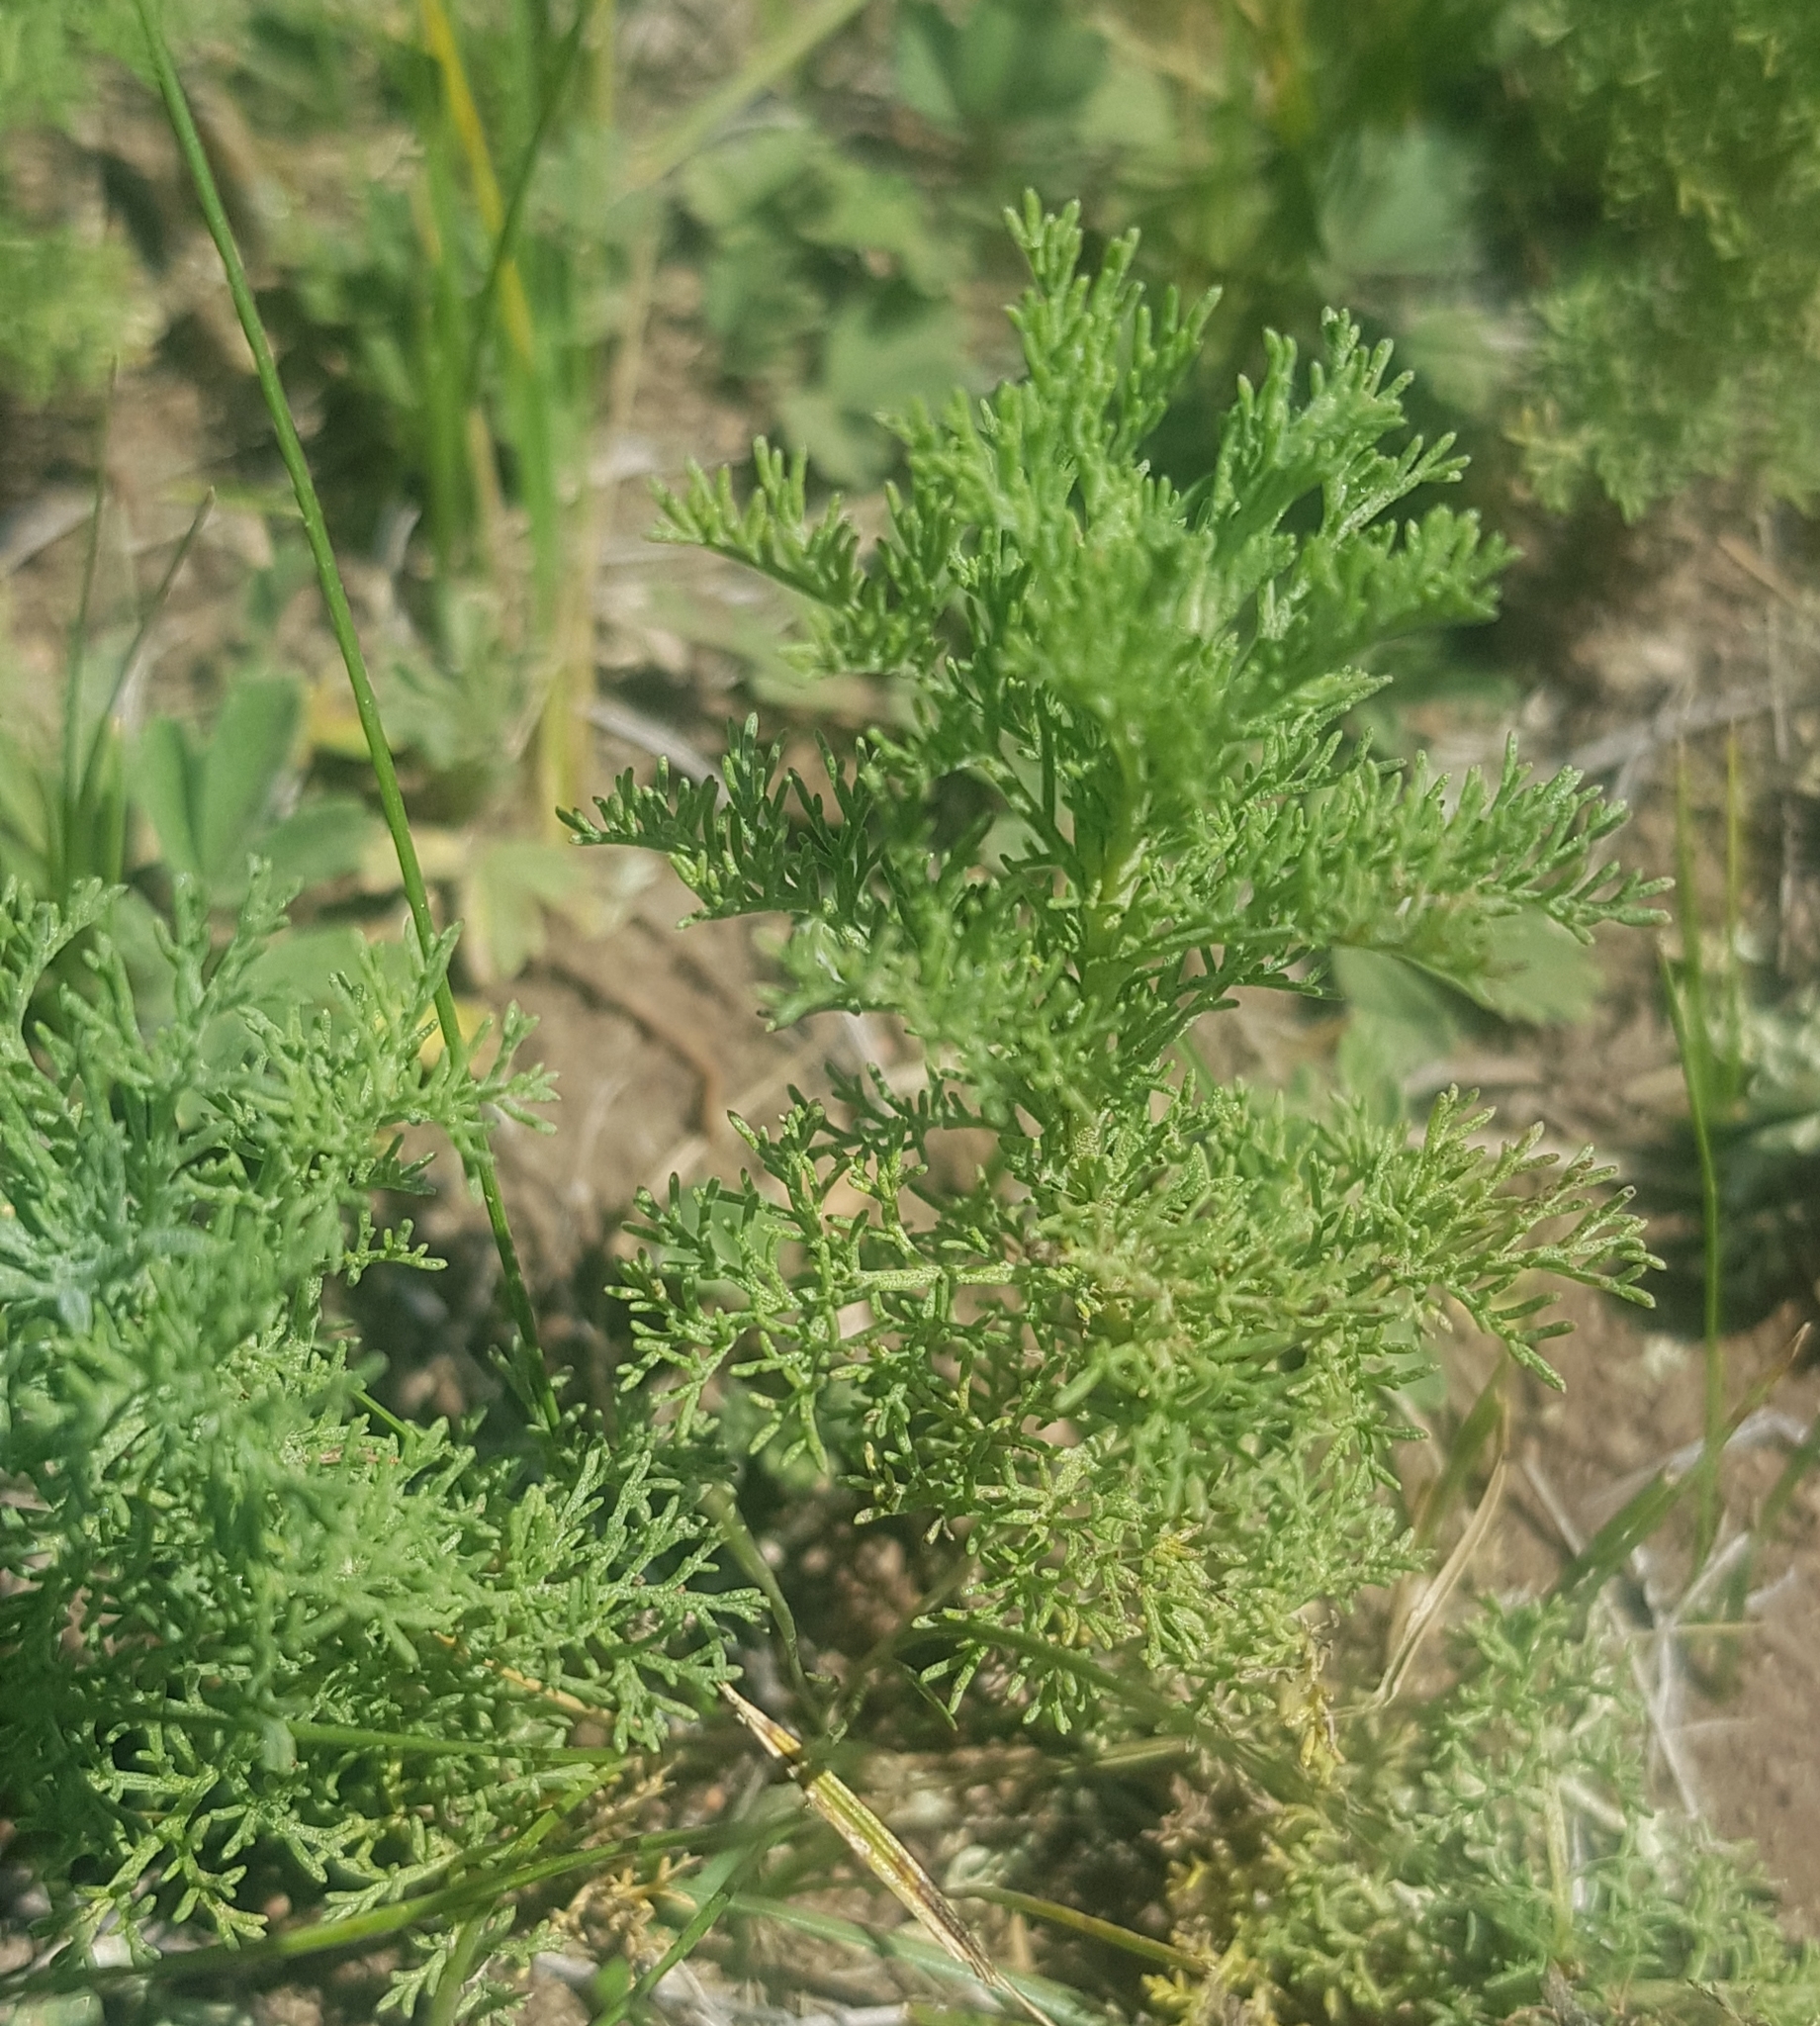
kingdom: Plantae
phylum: Tracheophyta
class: Magnoliopsida
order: Asterales
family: Asteraceae
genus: Artemisia
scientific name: Artemisia adamsii
